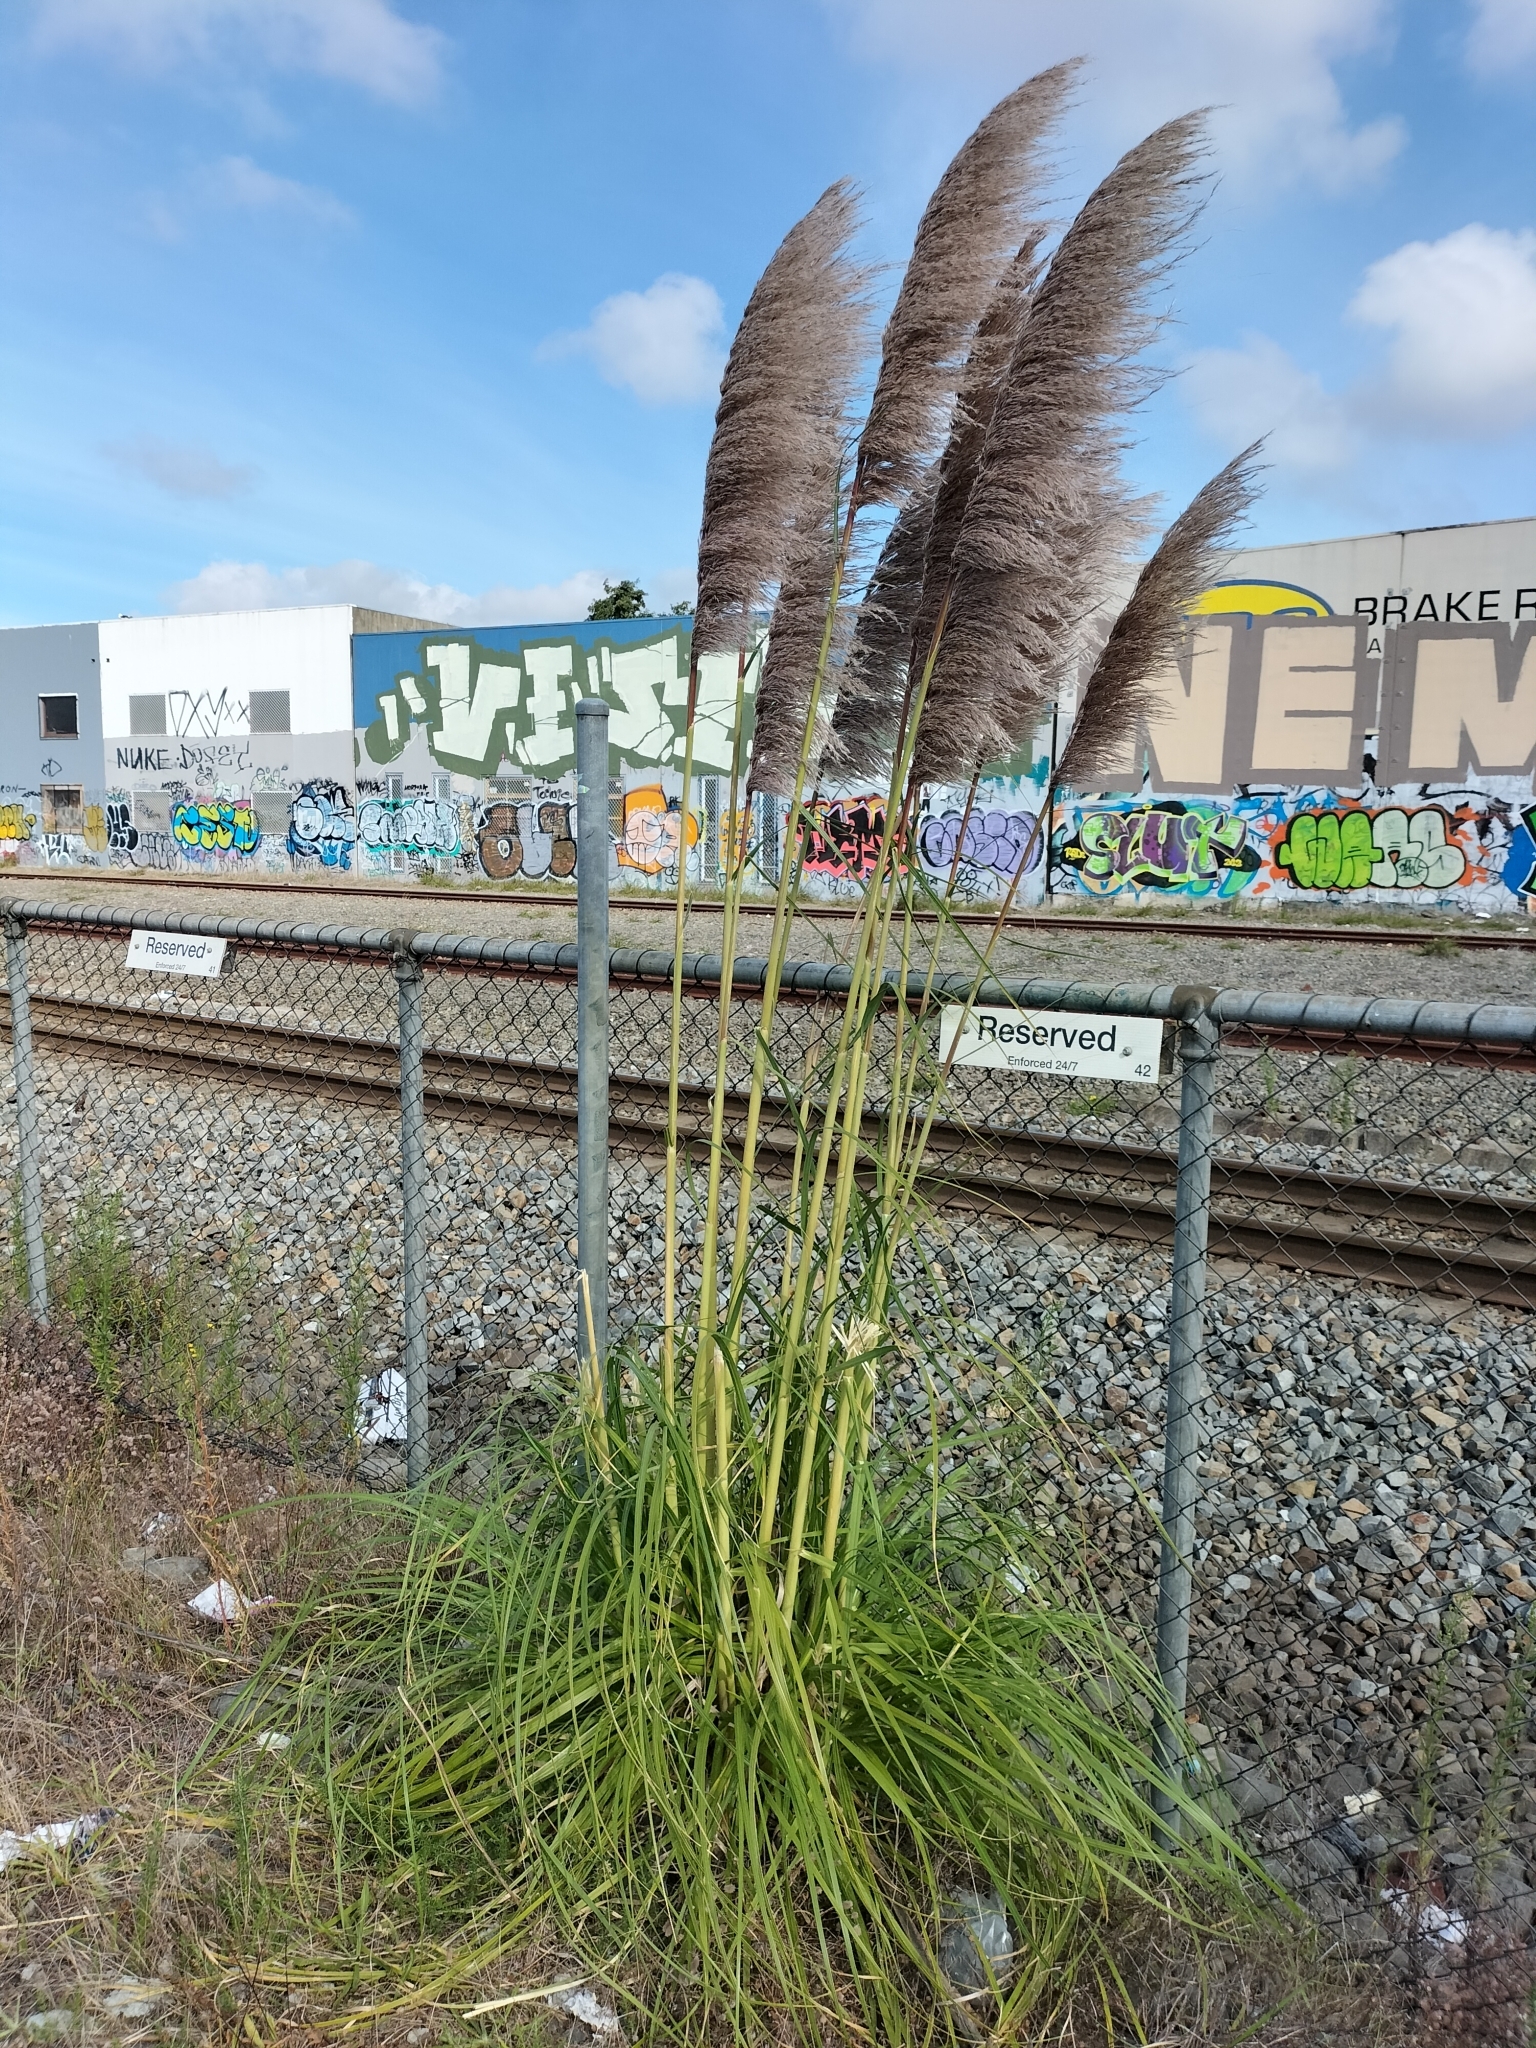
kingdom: Plantae
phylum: Tracheophyta
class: Liliopsida
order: Poales
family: Poaceae
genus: Cortaderia
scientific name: Cortaderia jubata
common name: Purple pampas grass
